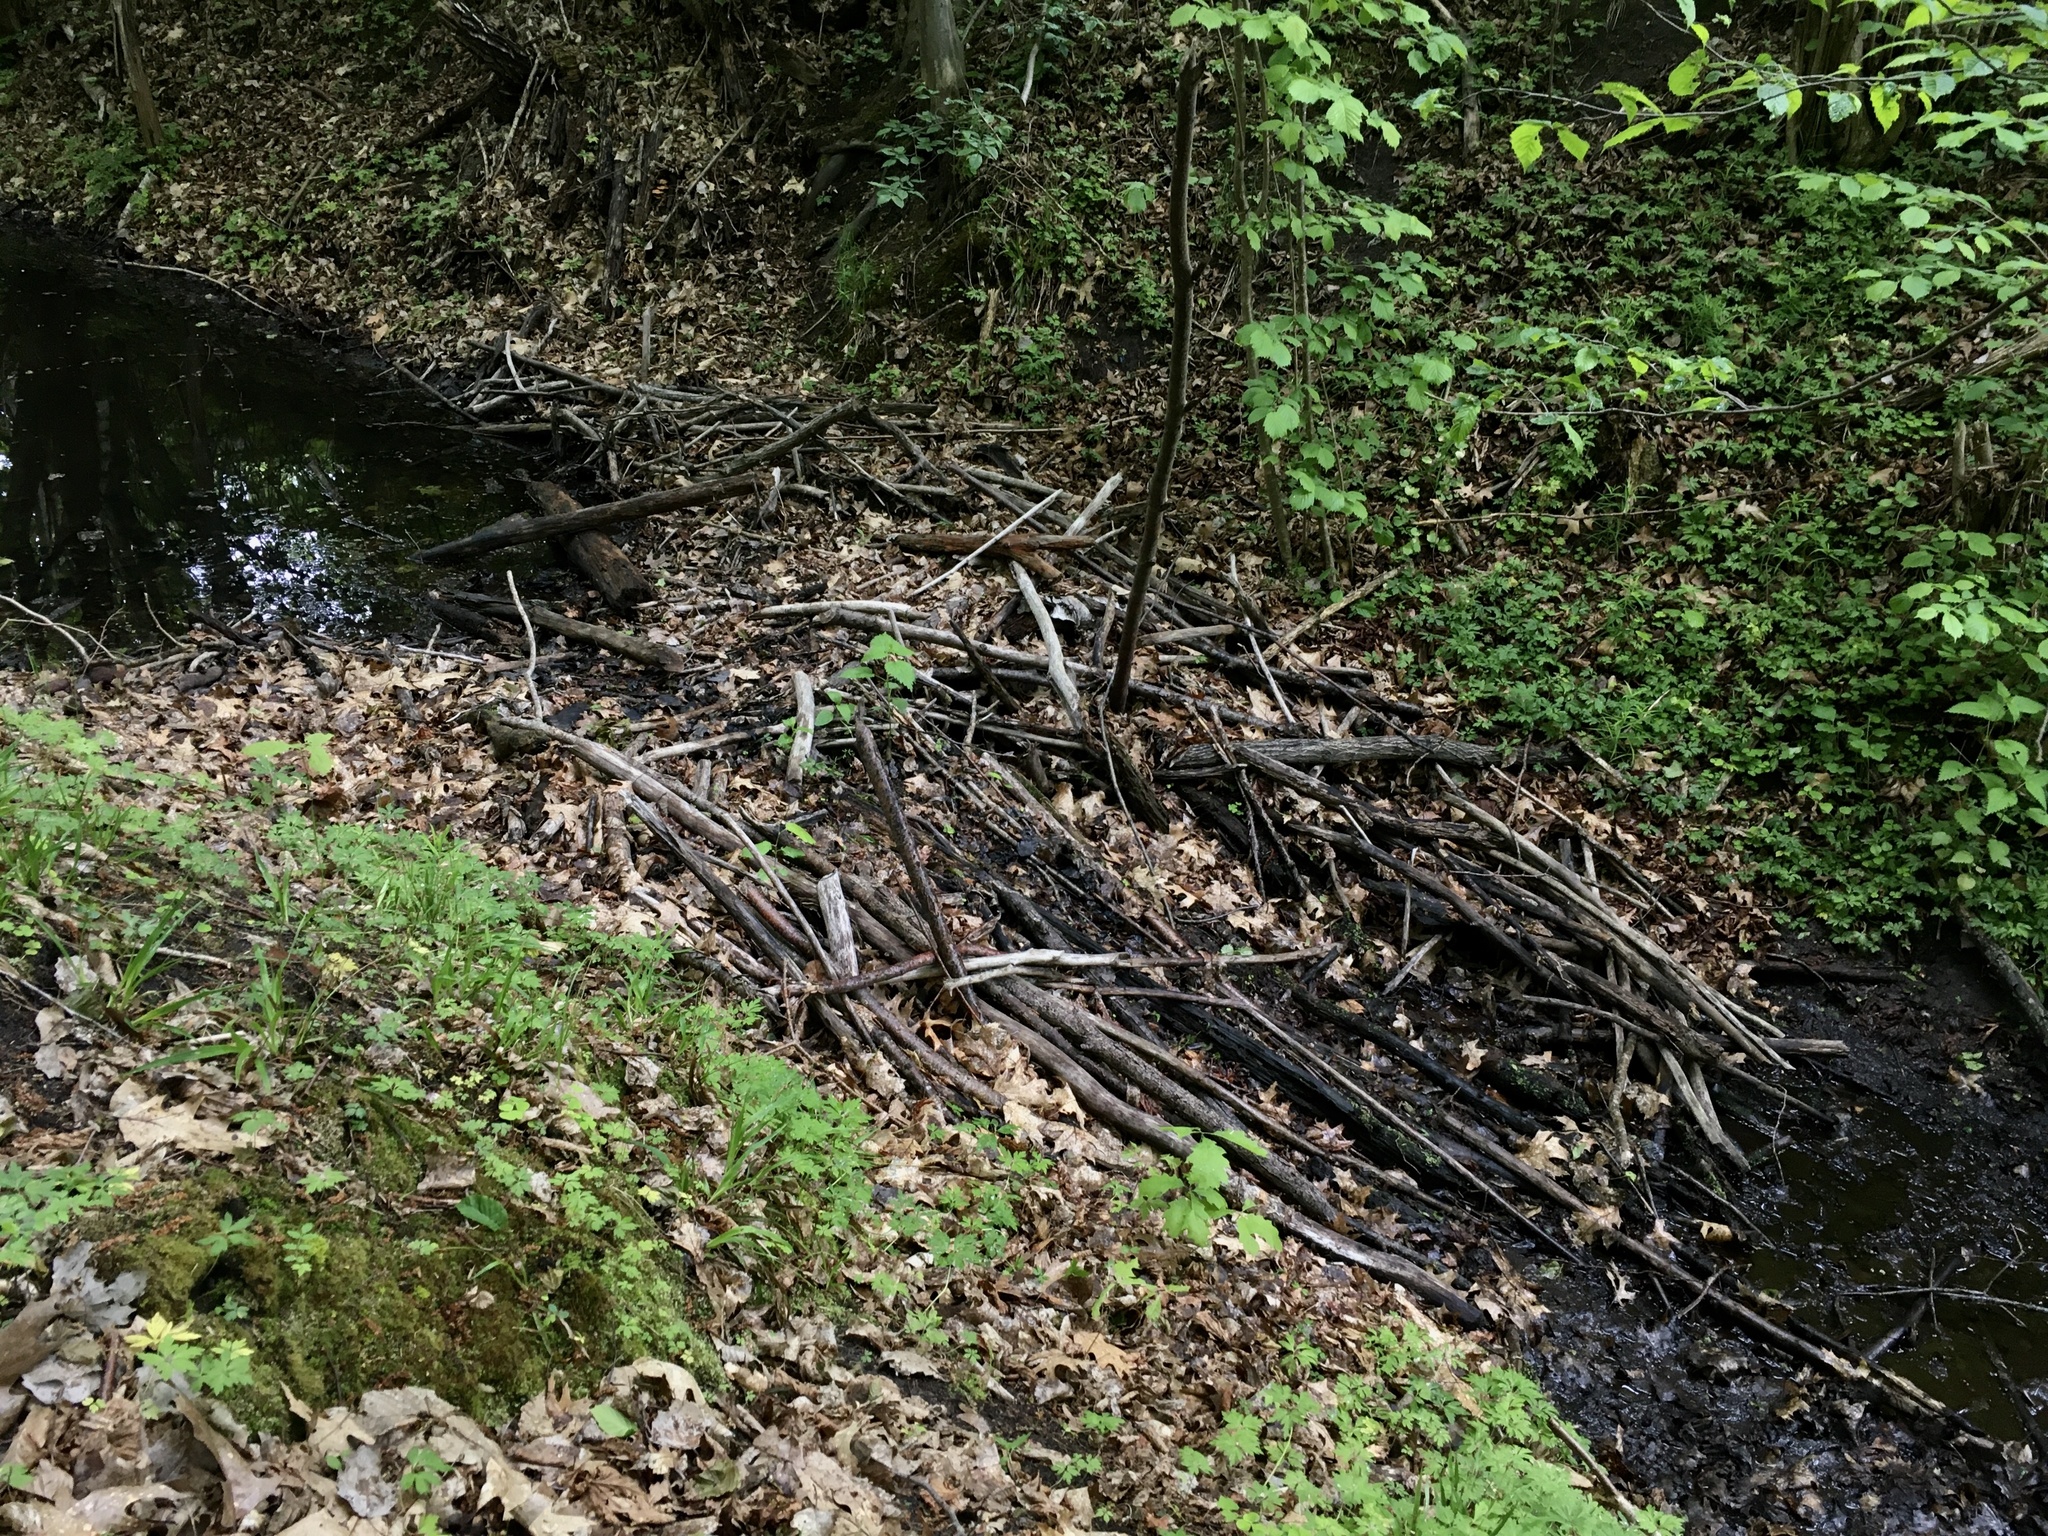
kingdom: Animalia
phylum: Chordata
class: Mammalia
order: Rodentia
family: Castoridae
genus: Castor
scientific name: Castor fiber
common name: Eurasian beaver
